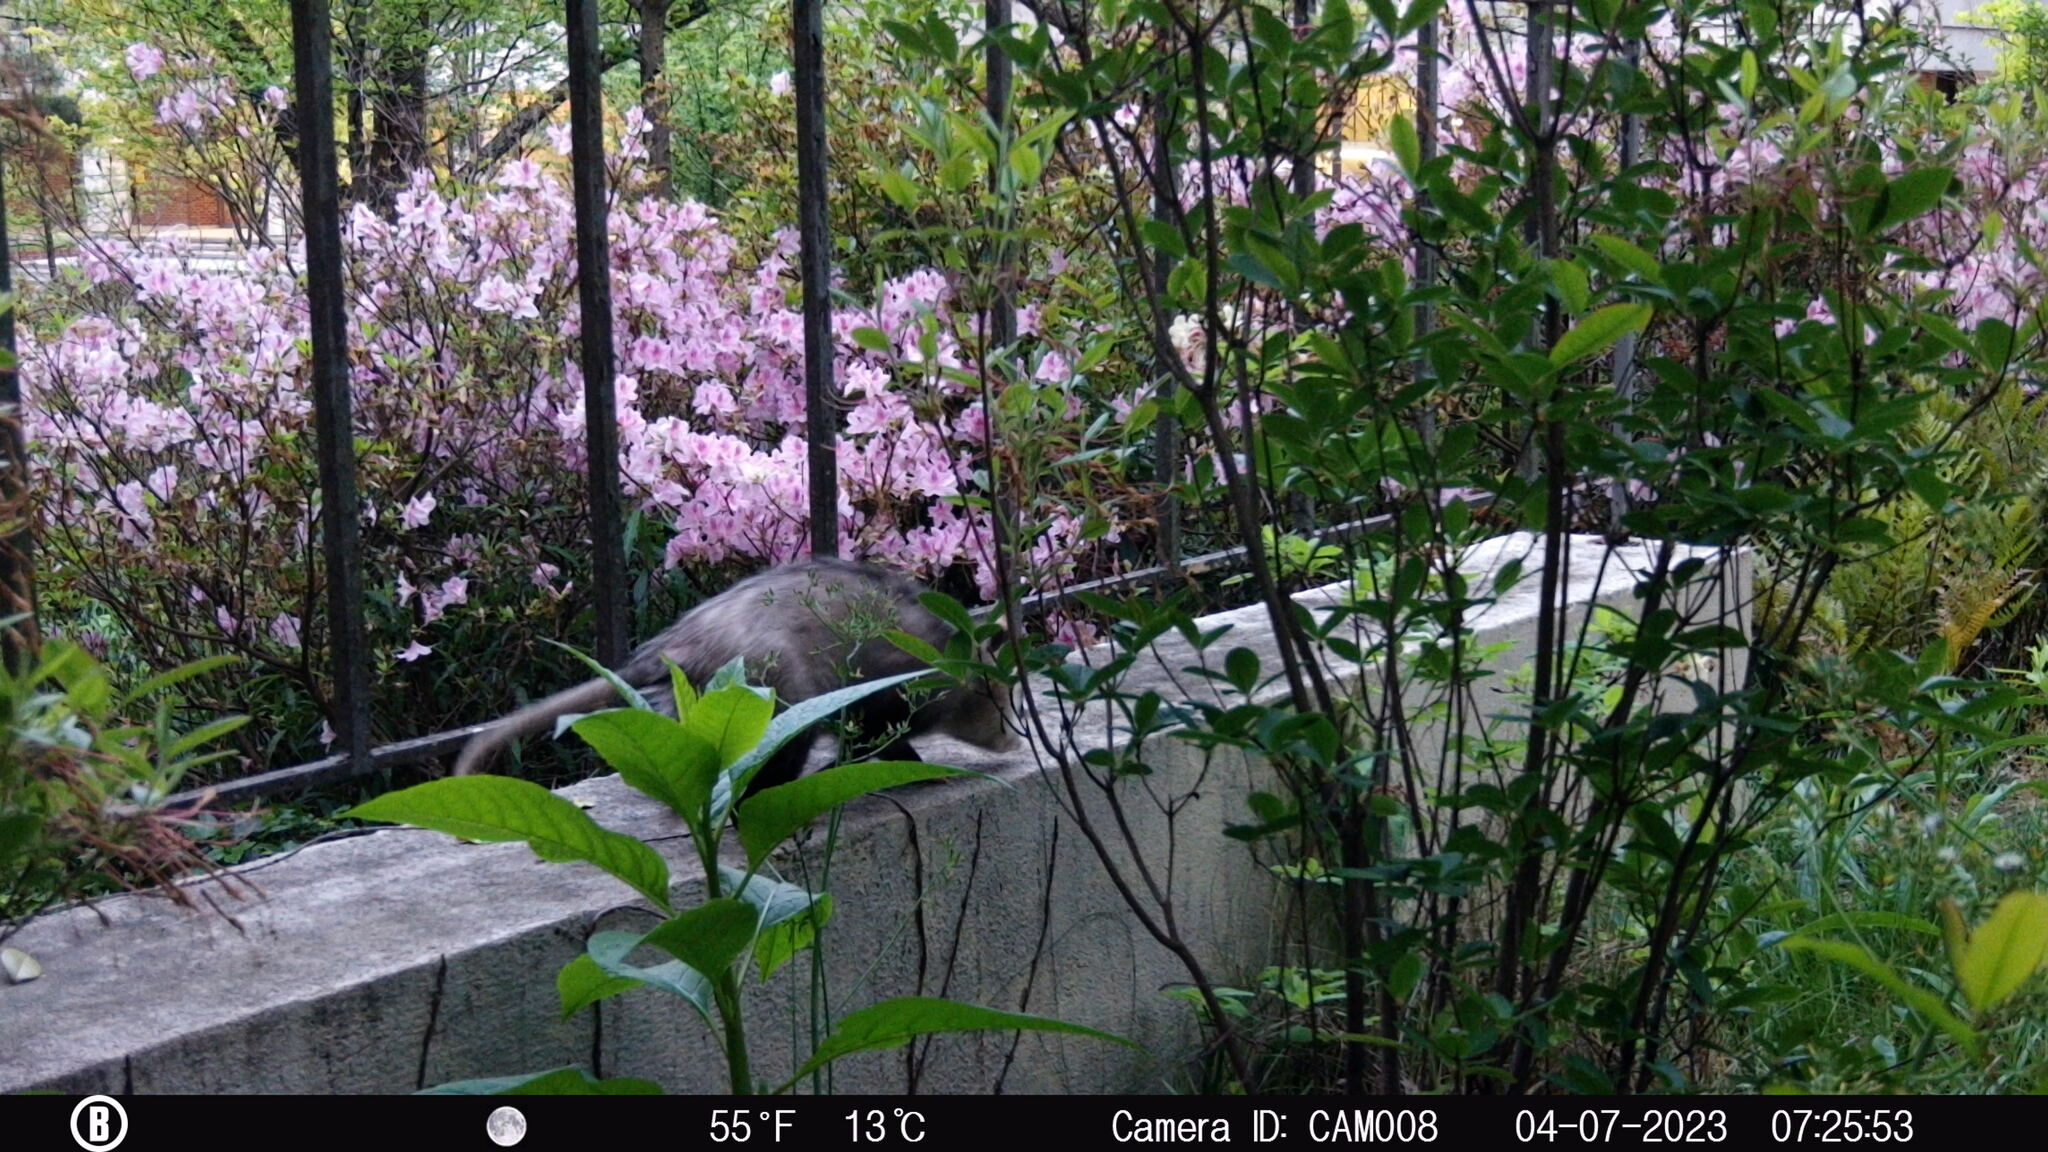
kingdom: Animalia
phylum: Chordata
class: Mammalia
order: Didelphimorphia
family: Didelphidae
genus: Didelphis
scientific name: Didelphis virginiana
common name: Virginia opossum
